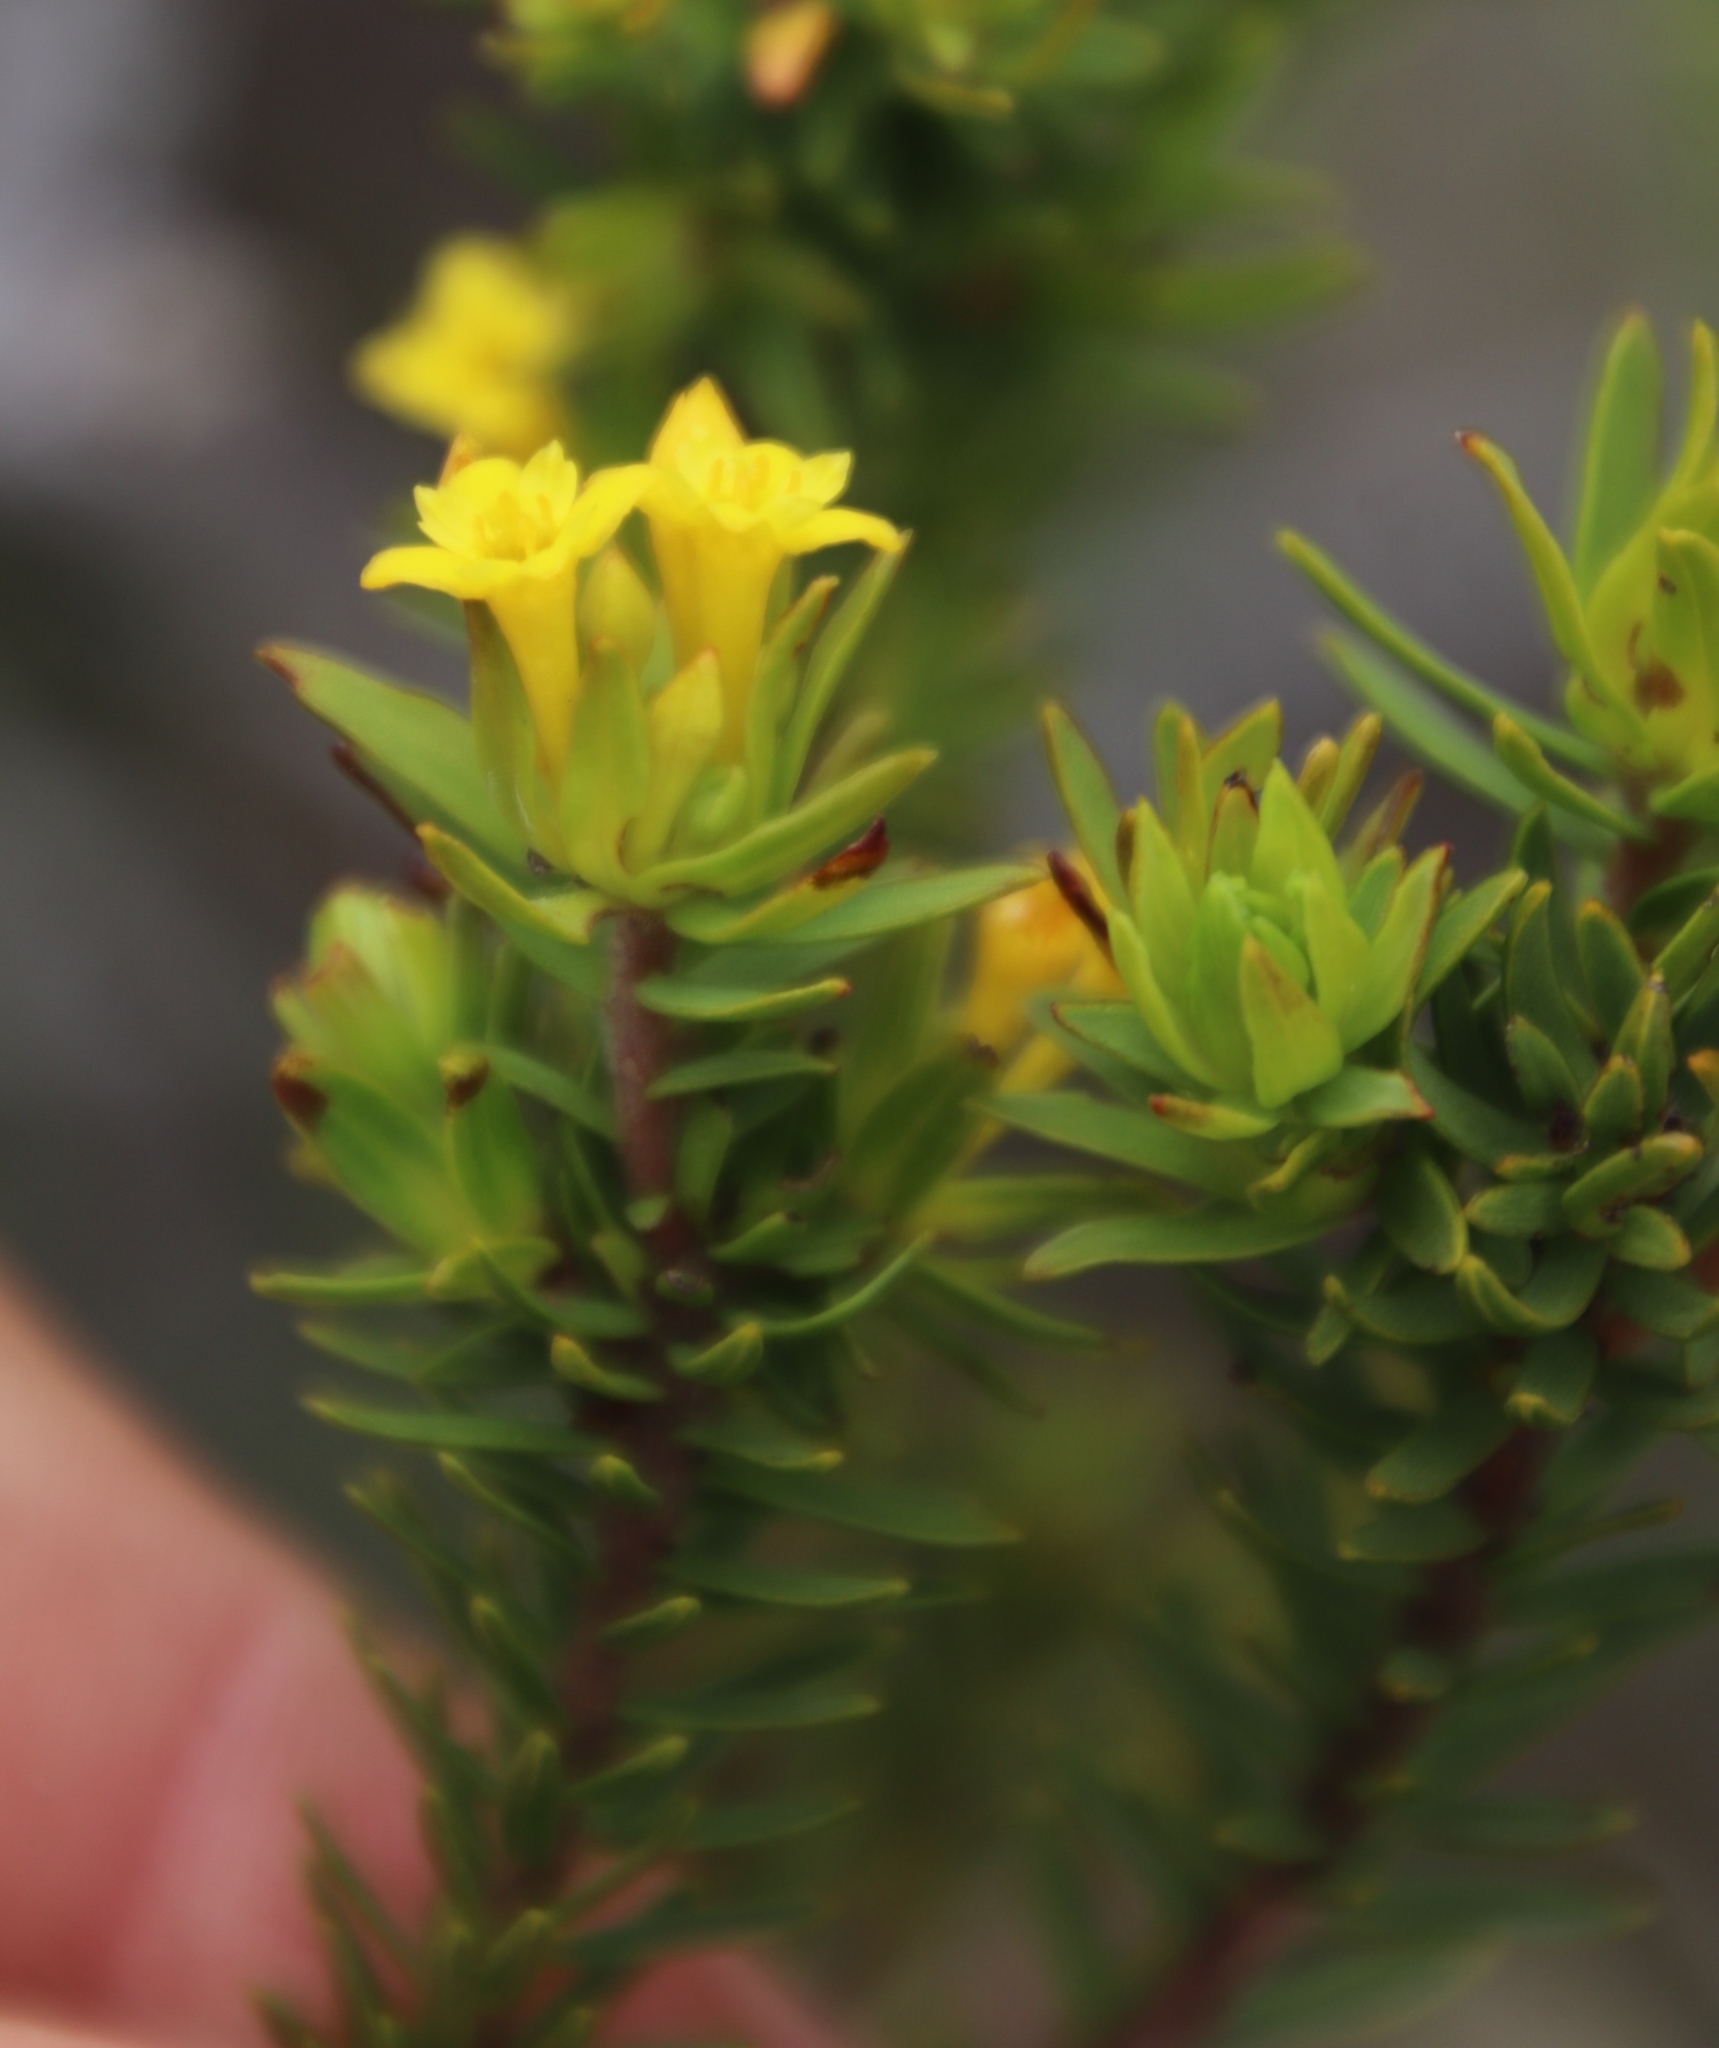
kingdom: Plantae
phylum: Tracheophyta
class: Magnoliopsida
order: Malvales
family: Thymelaeaceae
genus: Gnidia
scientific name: Gnidia juniperifolia
